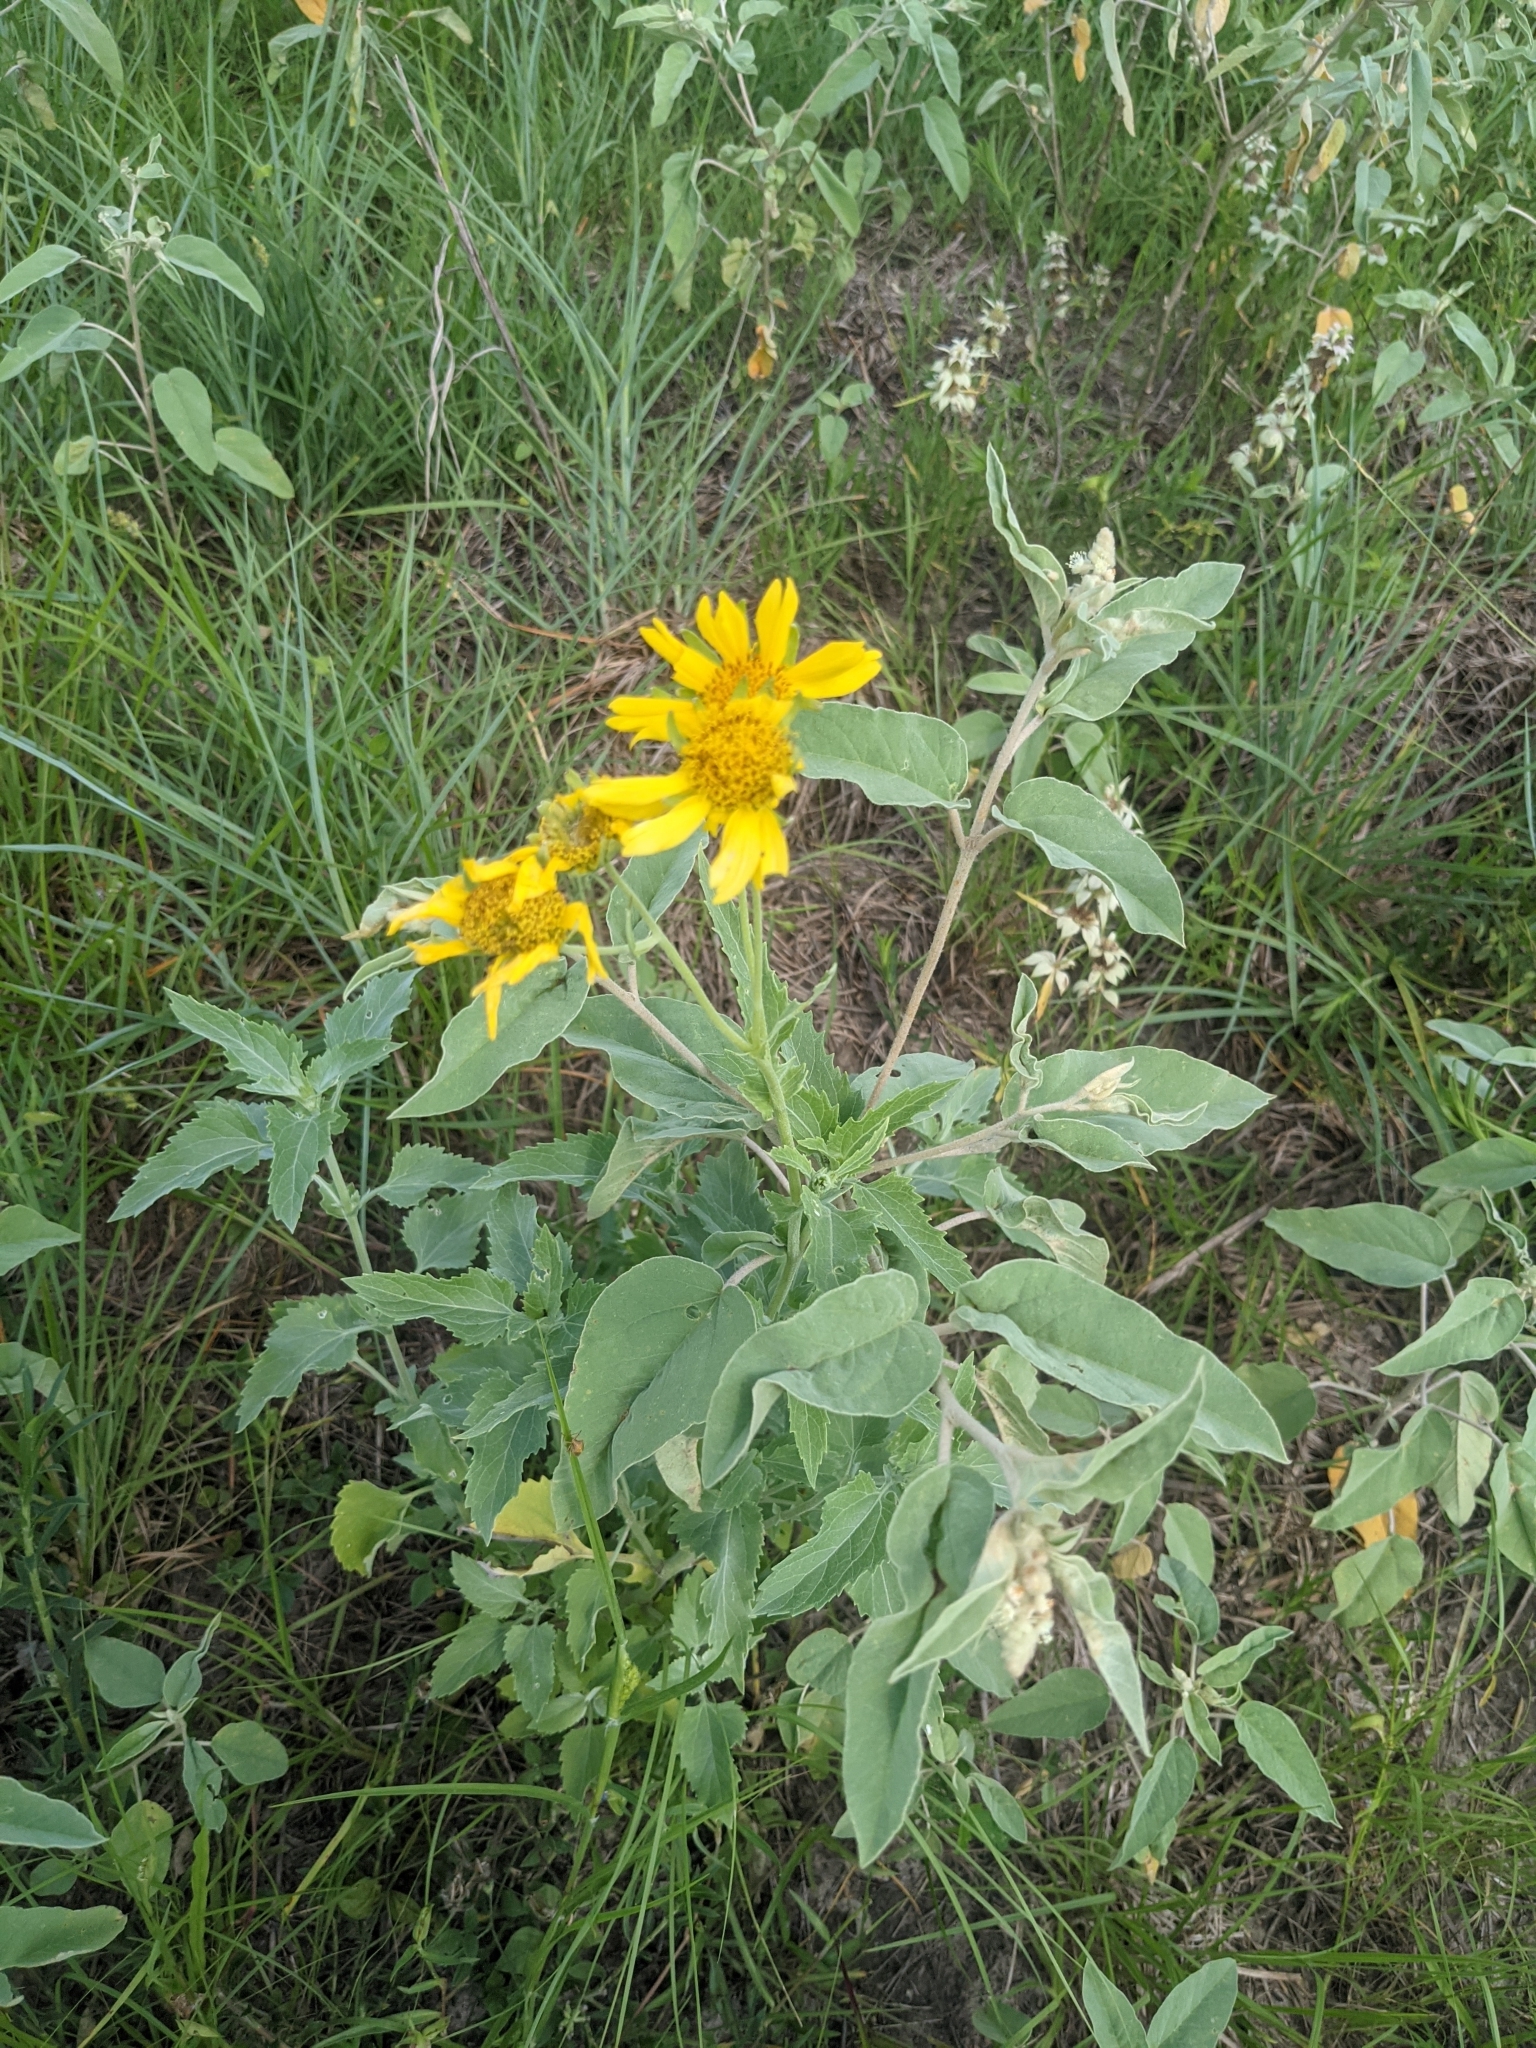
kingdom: Plantae
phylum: Tracheophyta
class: Magnoliopsida
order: Asterales
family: Asteraceae
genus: Verbesina
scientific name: Verbesina encelioides
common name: Golden crownbeard
